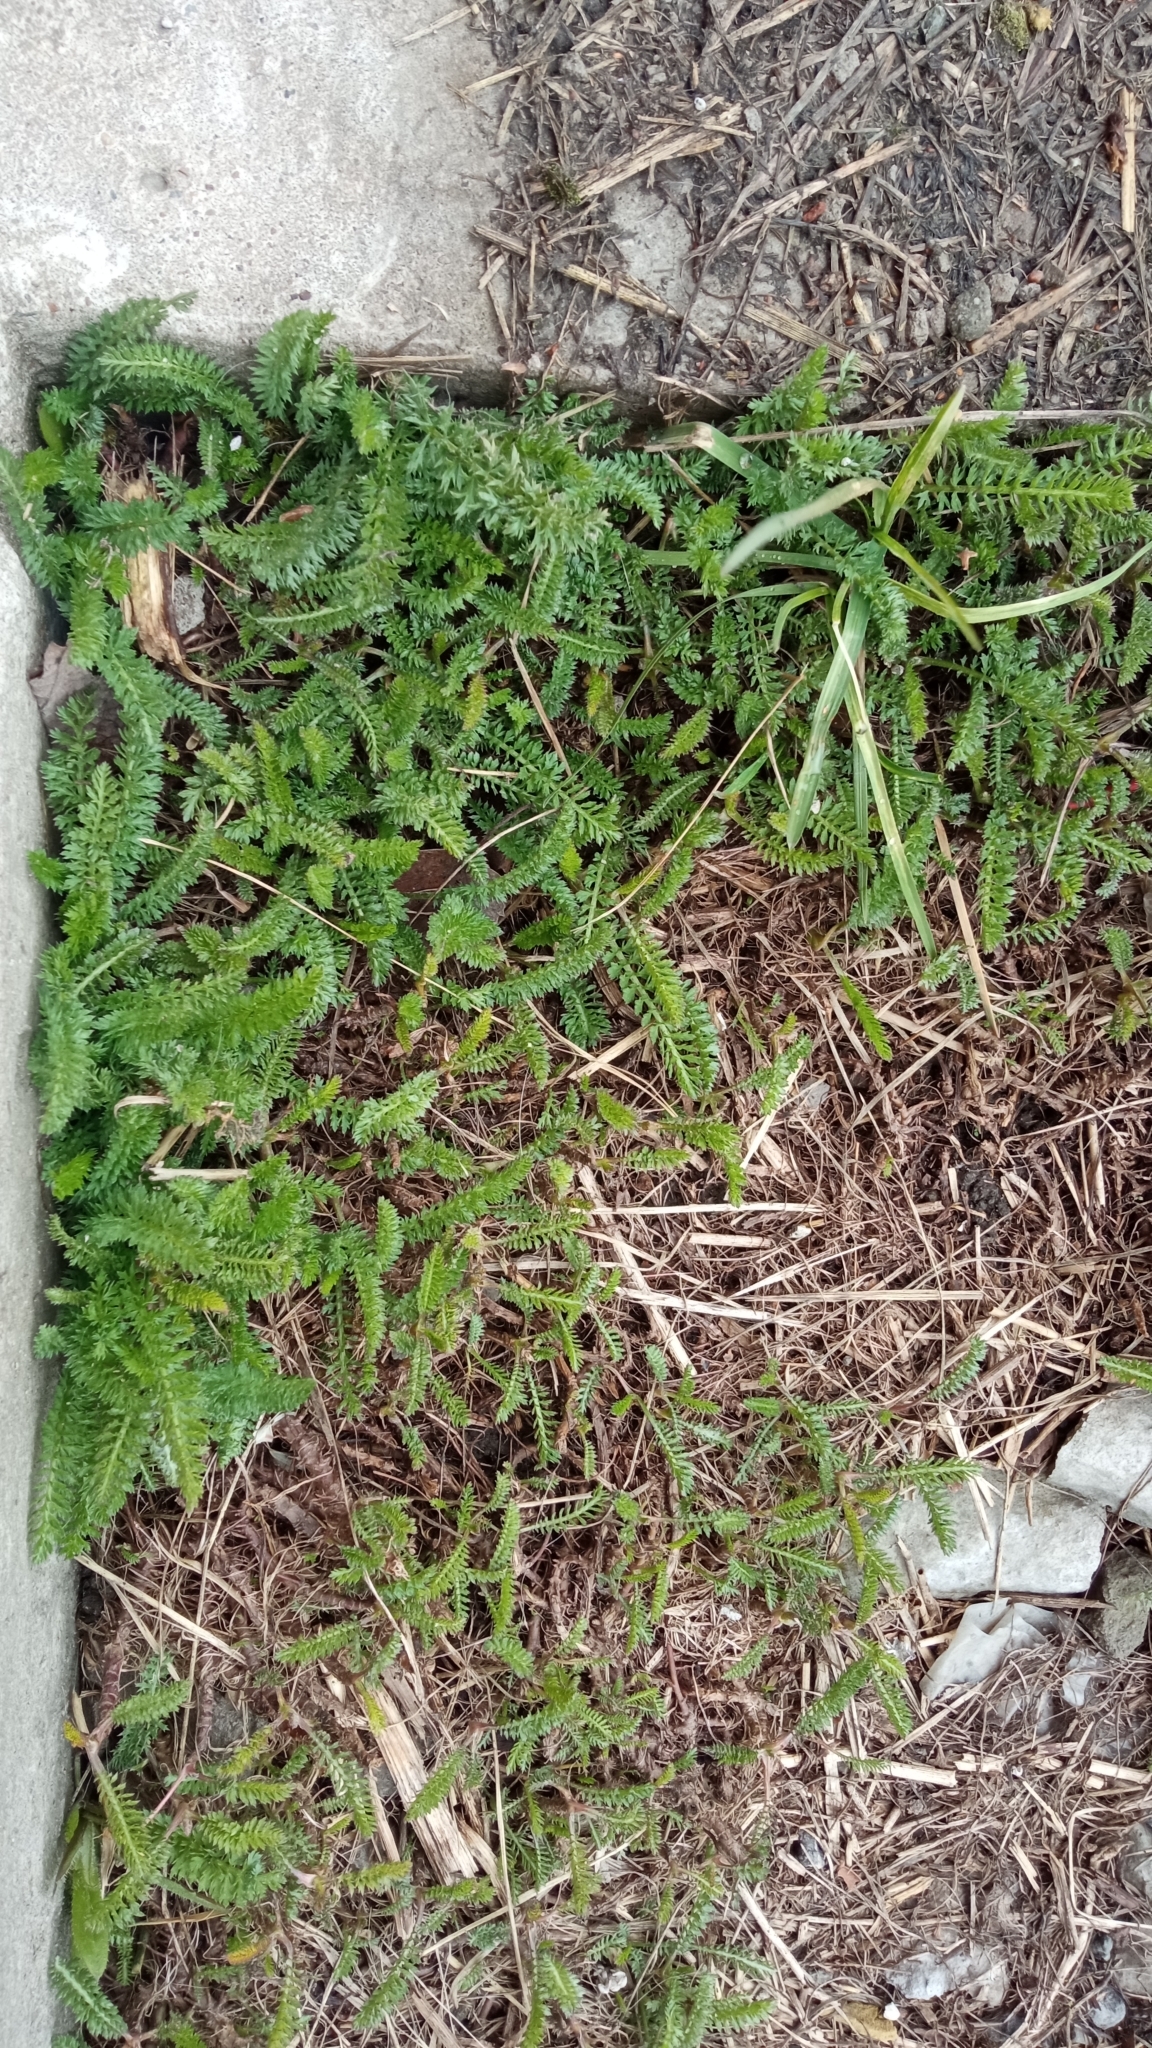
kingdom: Plantae
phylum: Tracheophyta
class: Magnoliopsida
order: Asterales
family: Asteraceae
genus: Achillea
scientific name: Achillea millefolium
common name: Yarrow
